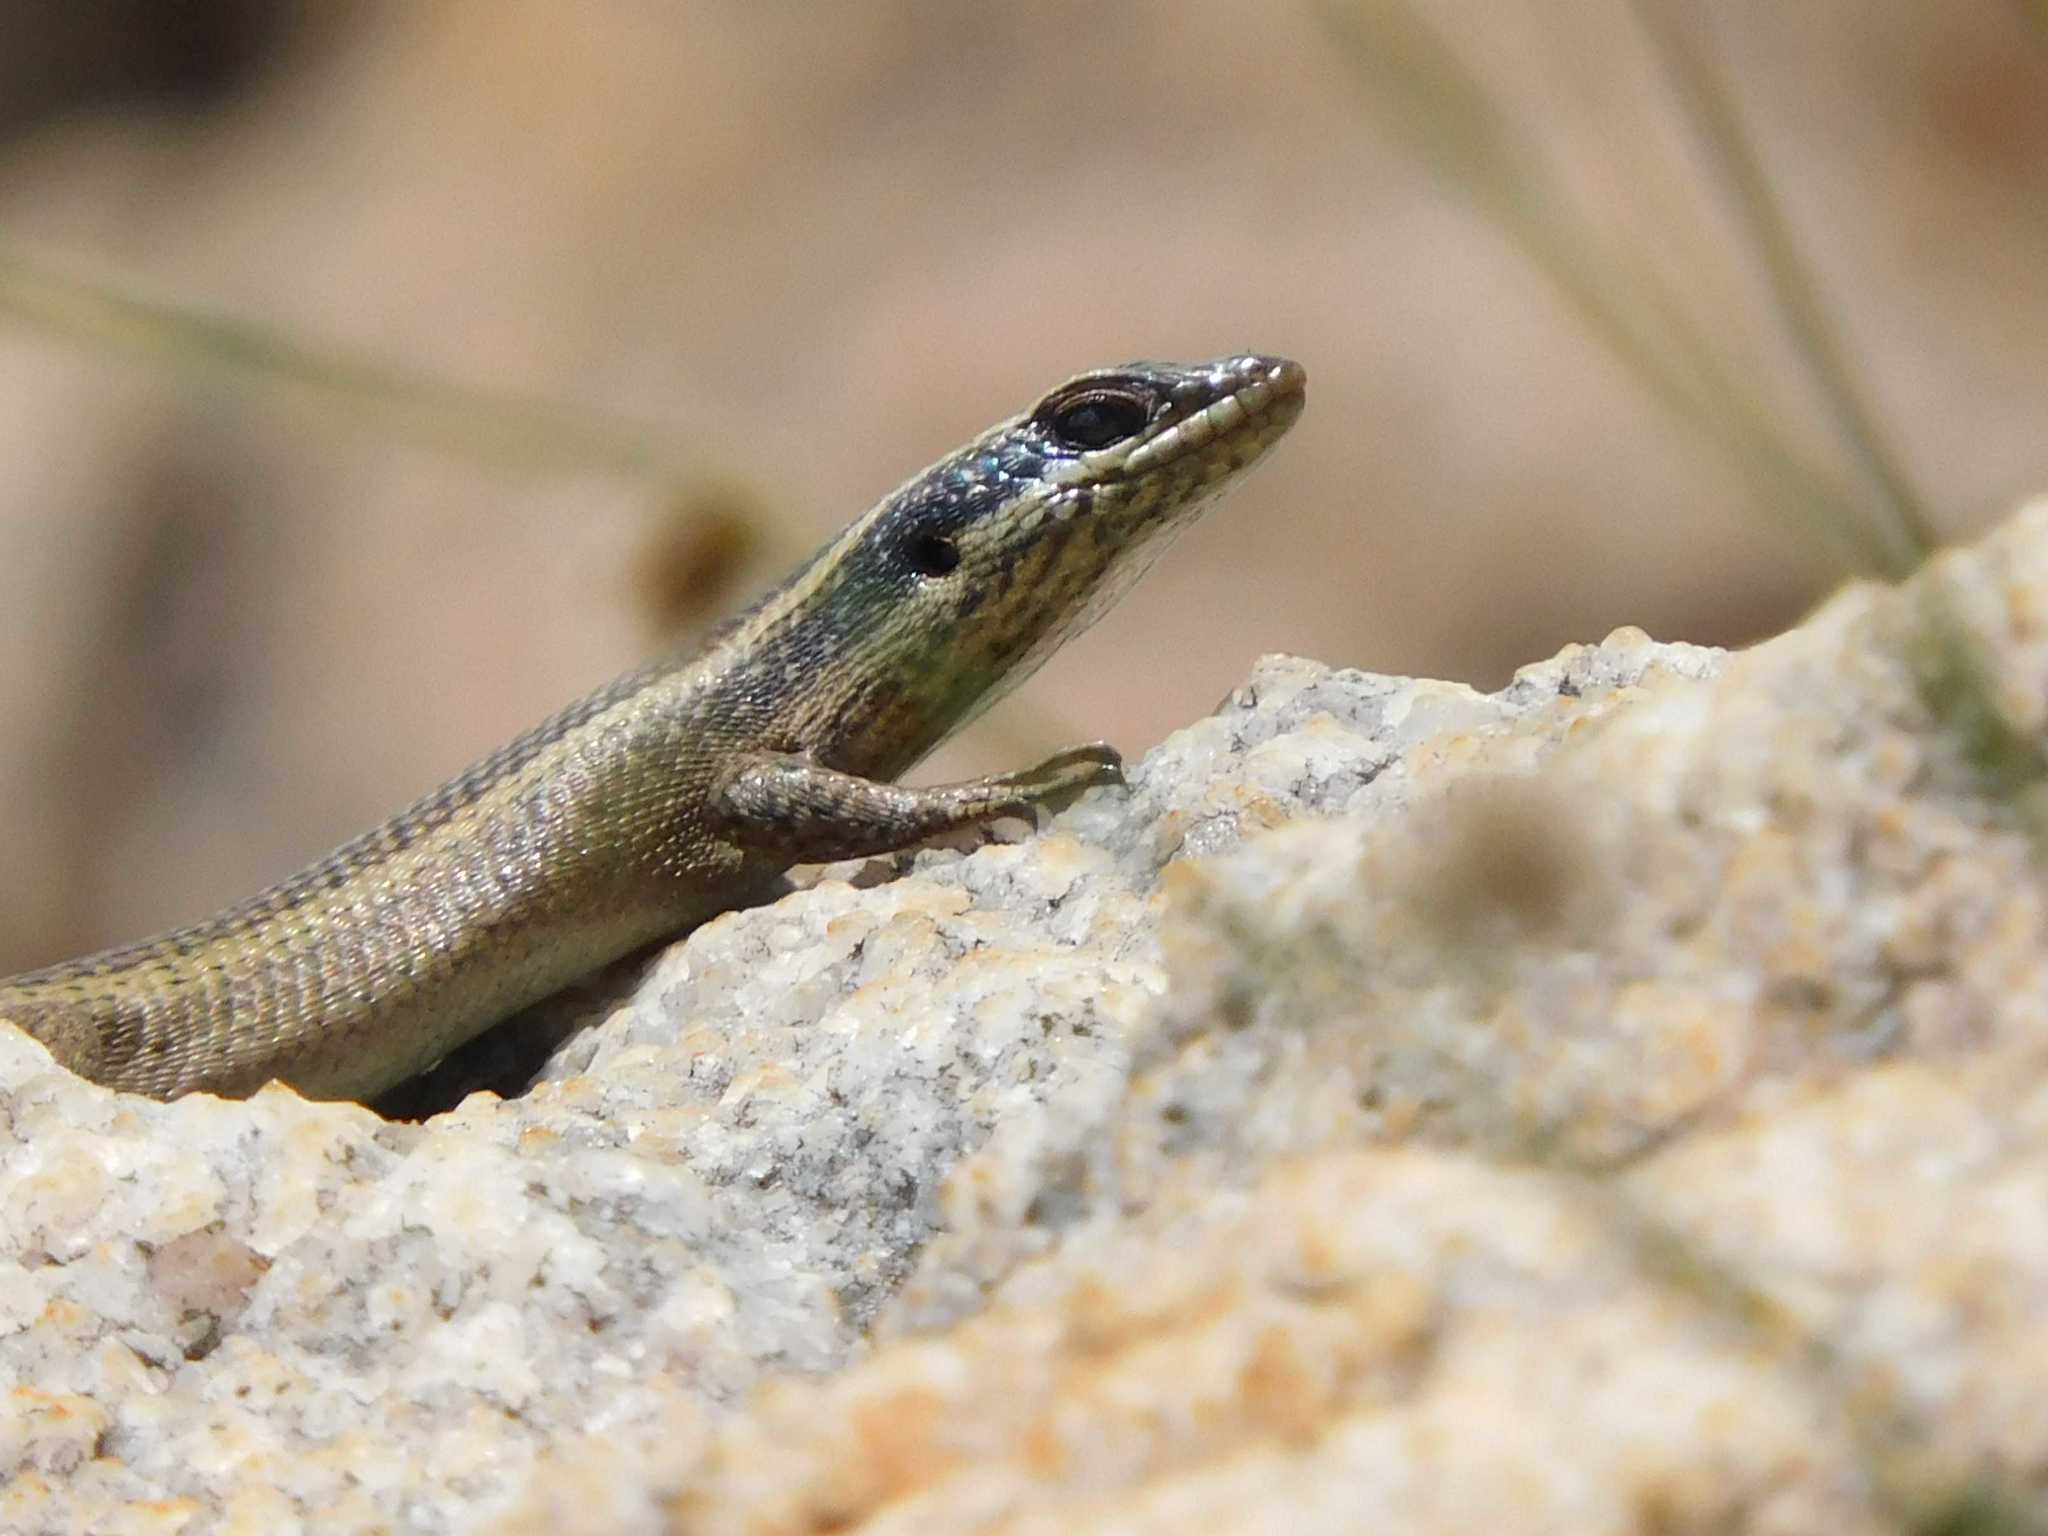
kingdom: Animalia
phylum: Chordata
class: Squamata
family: Scincidae
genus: Trachylepis
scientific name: Trachylepis punctatissima
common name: Montane speckled skink
